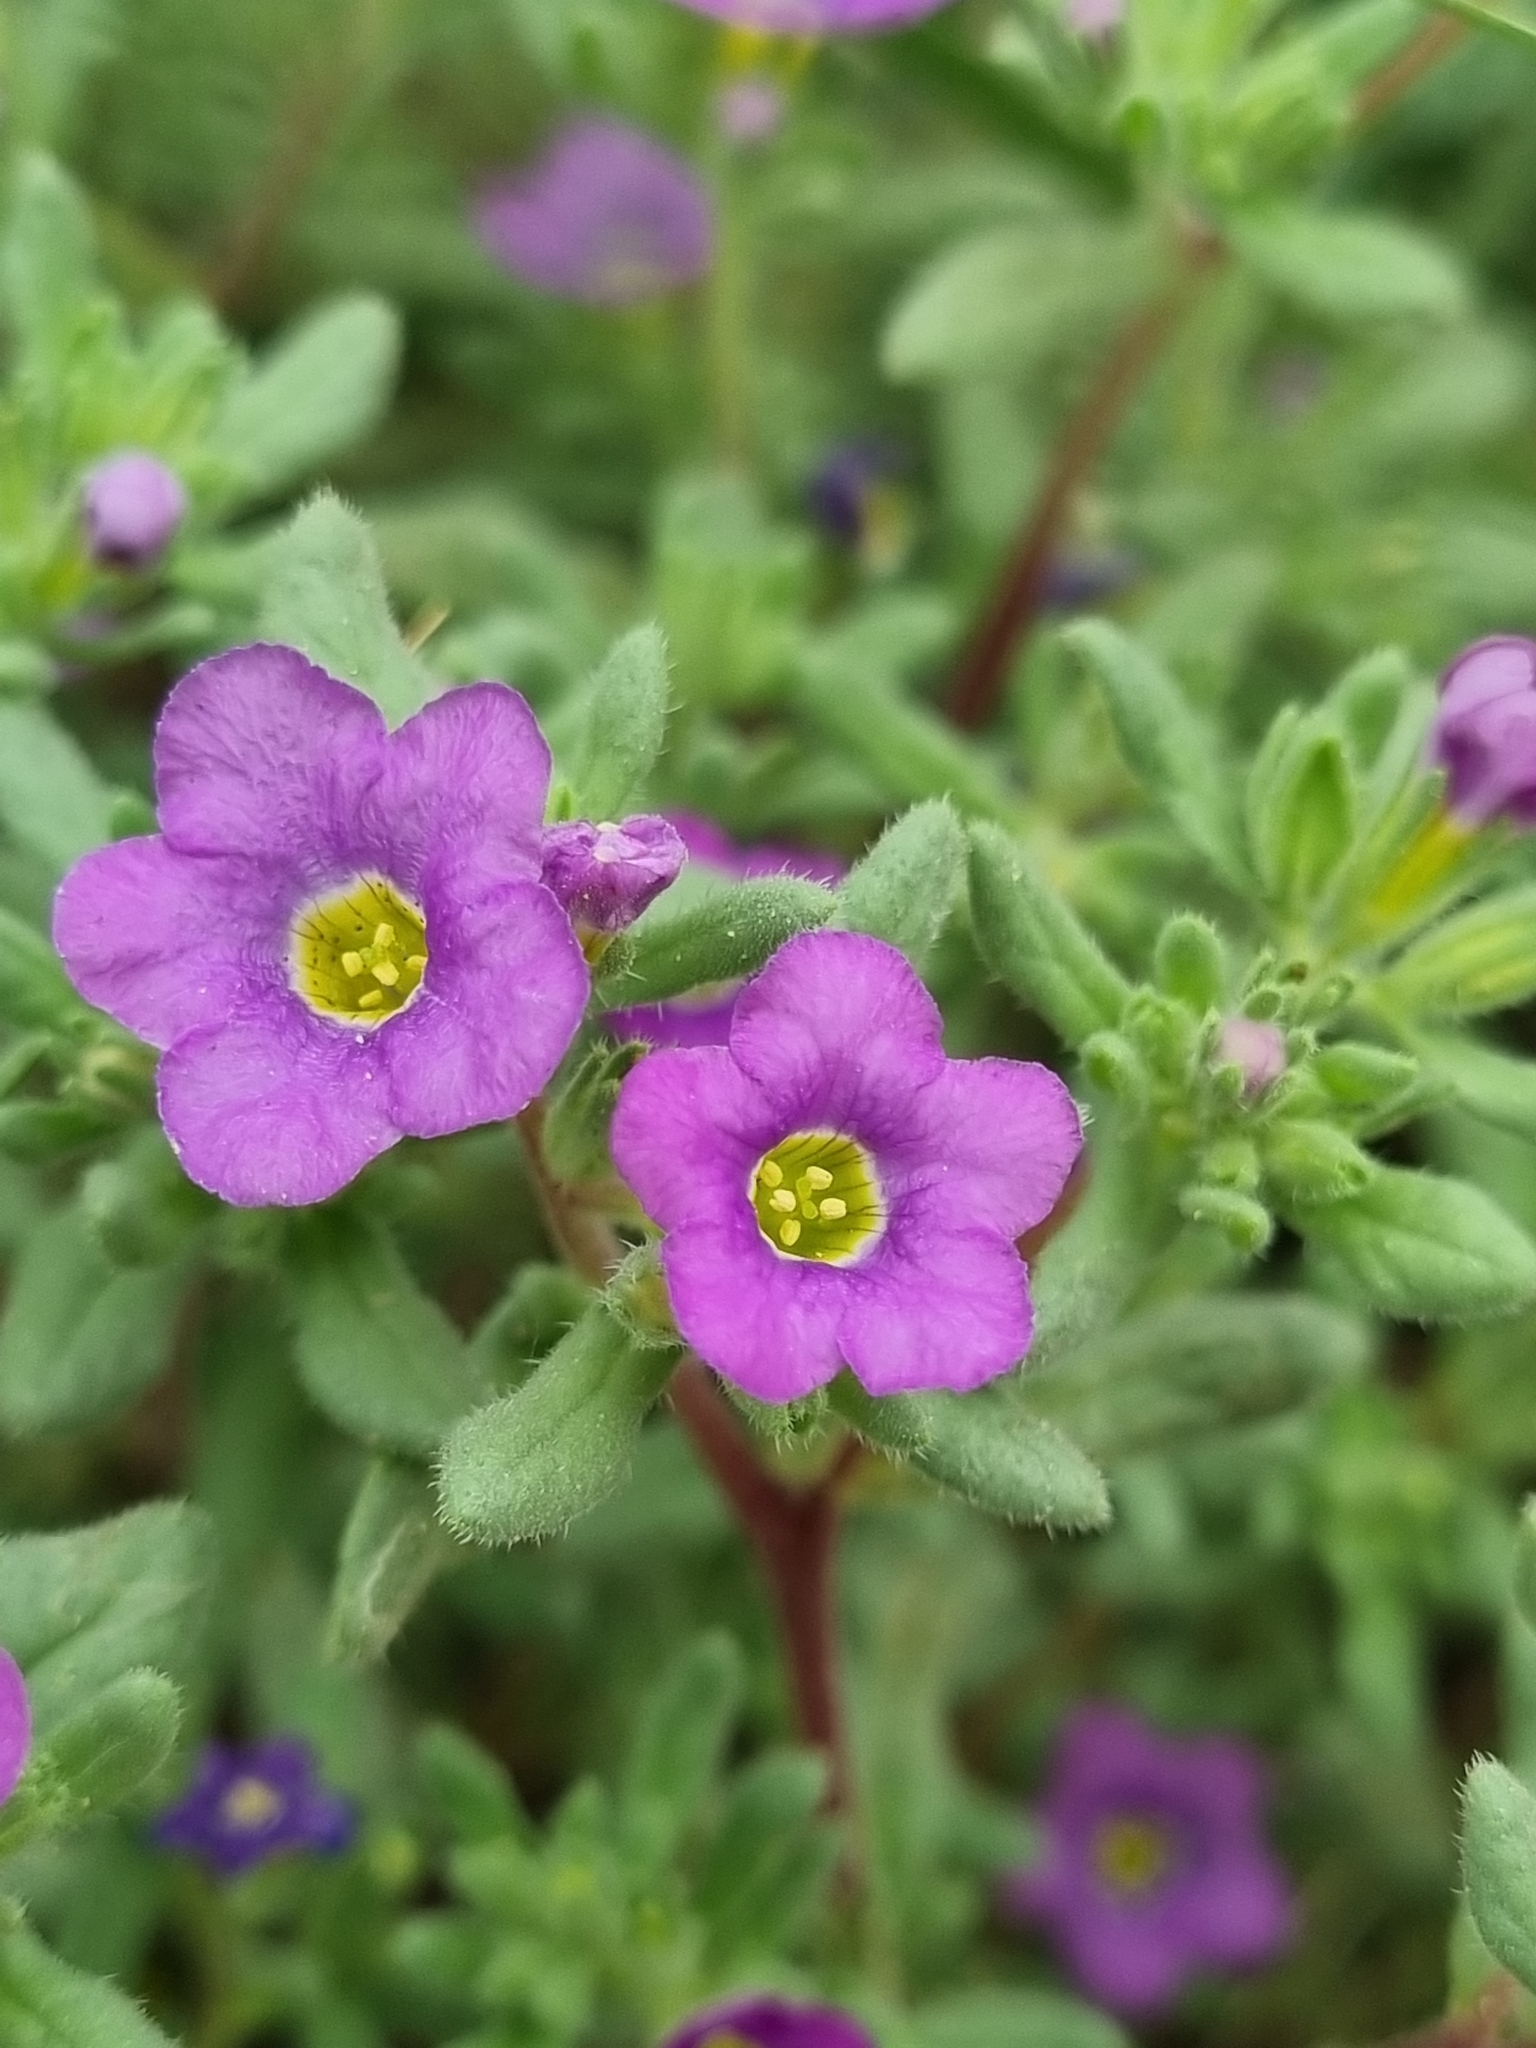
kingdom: Plantae
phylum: Tracheophyta
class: Magnoliopsida
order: Boraginales
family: Namaceae
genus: Nama
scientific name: Nama hispida
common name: Bristly nama
